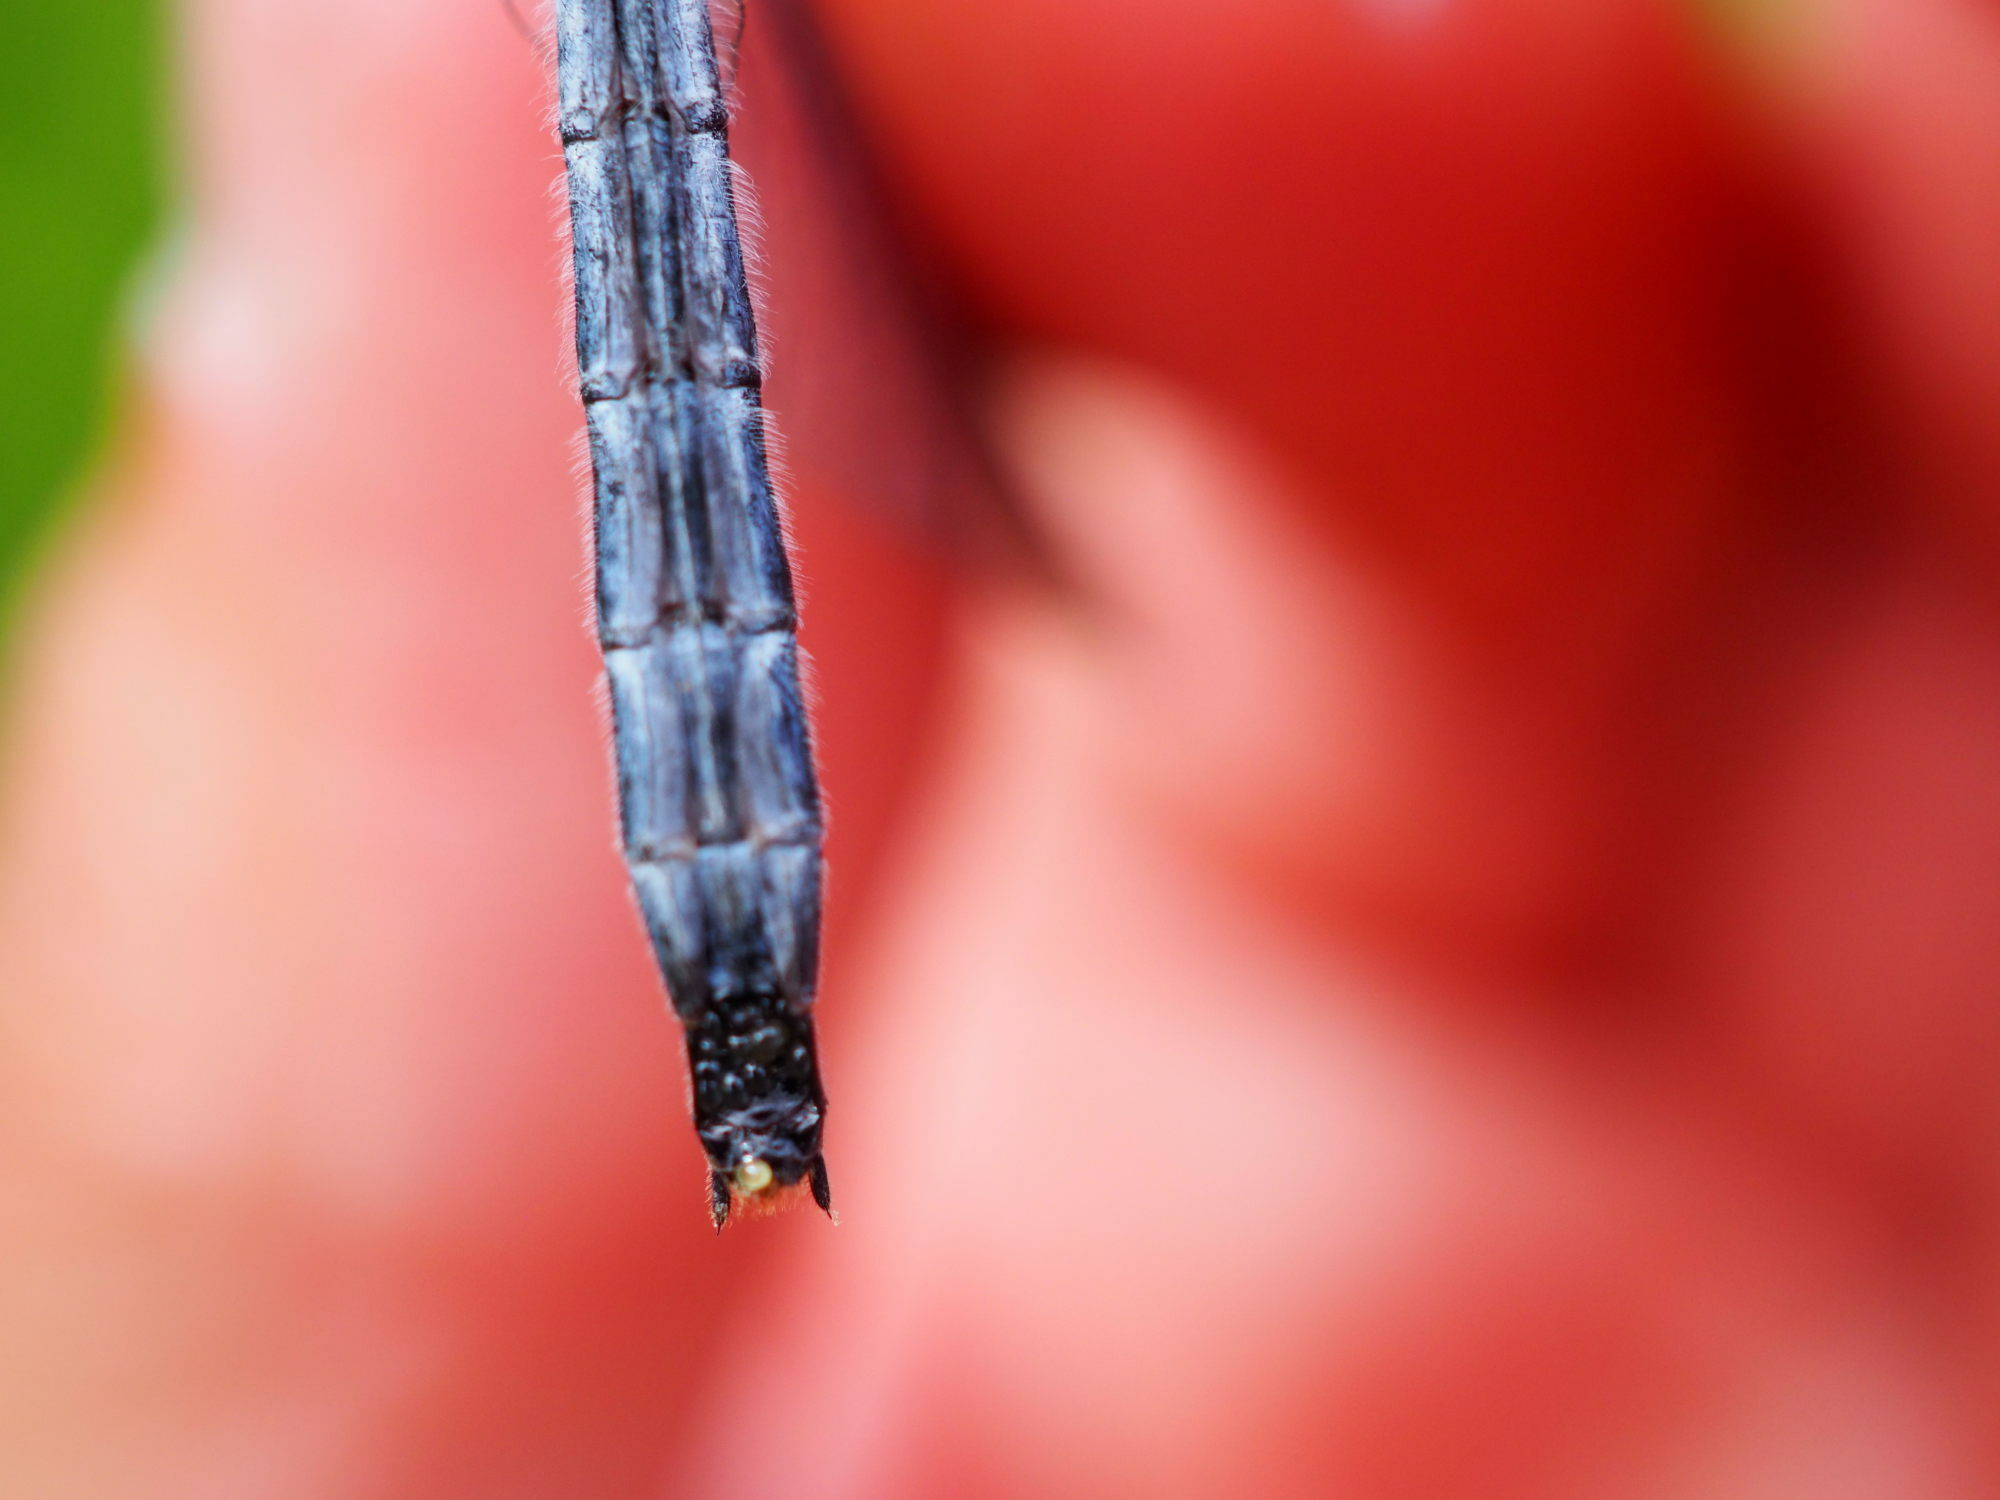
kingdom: Animalia
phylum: Arthropoda
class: Insecta
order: Odonata
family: Libellulidae
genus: Leucorrhinia
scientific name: Leucorrhinia dubia
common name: White-faced darter
